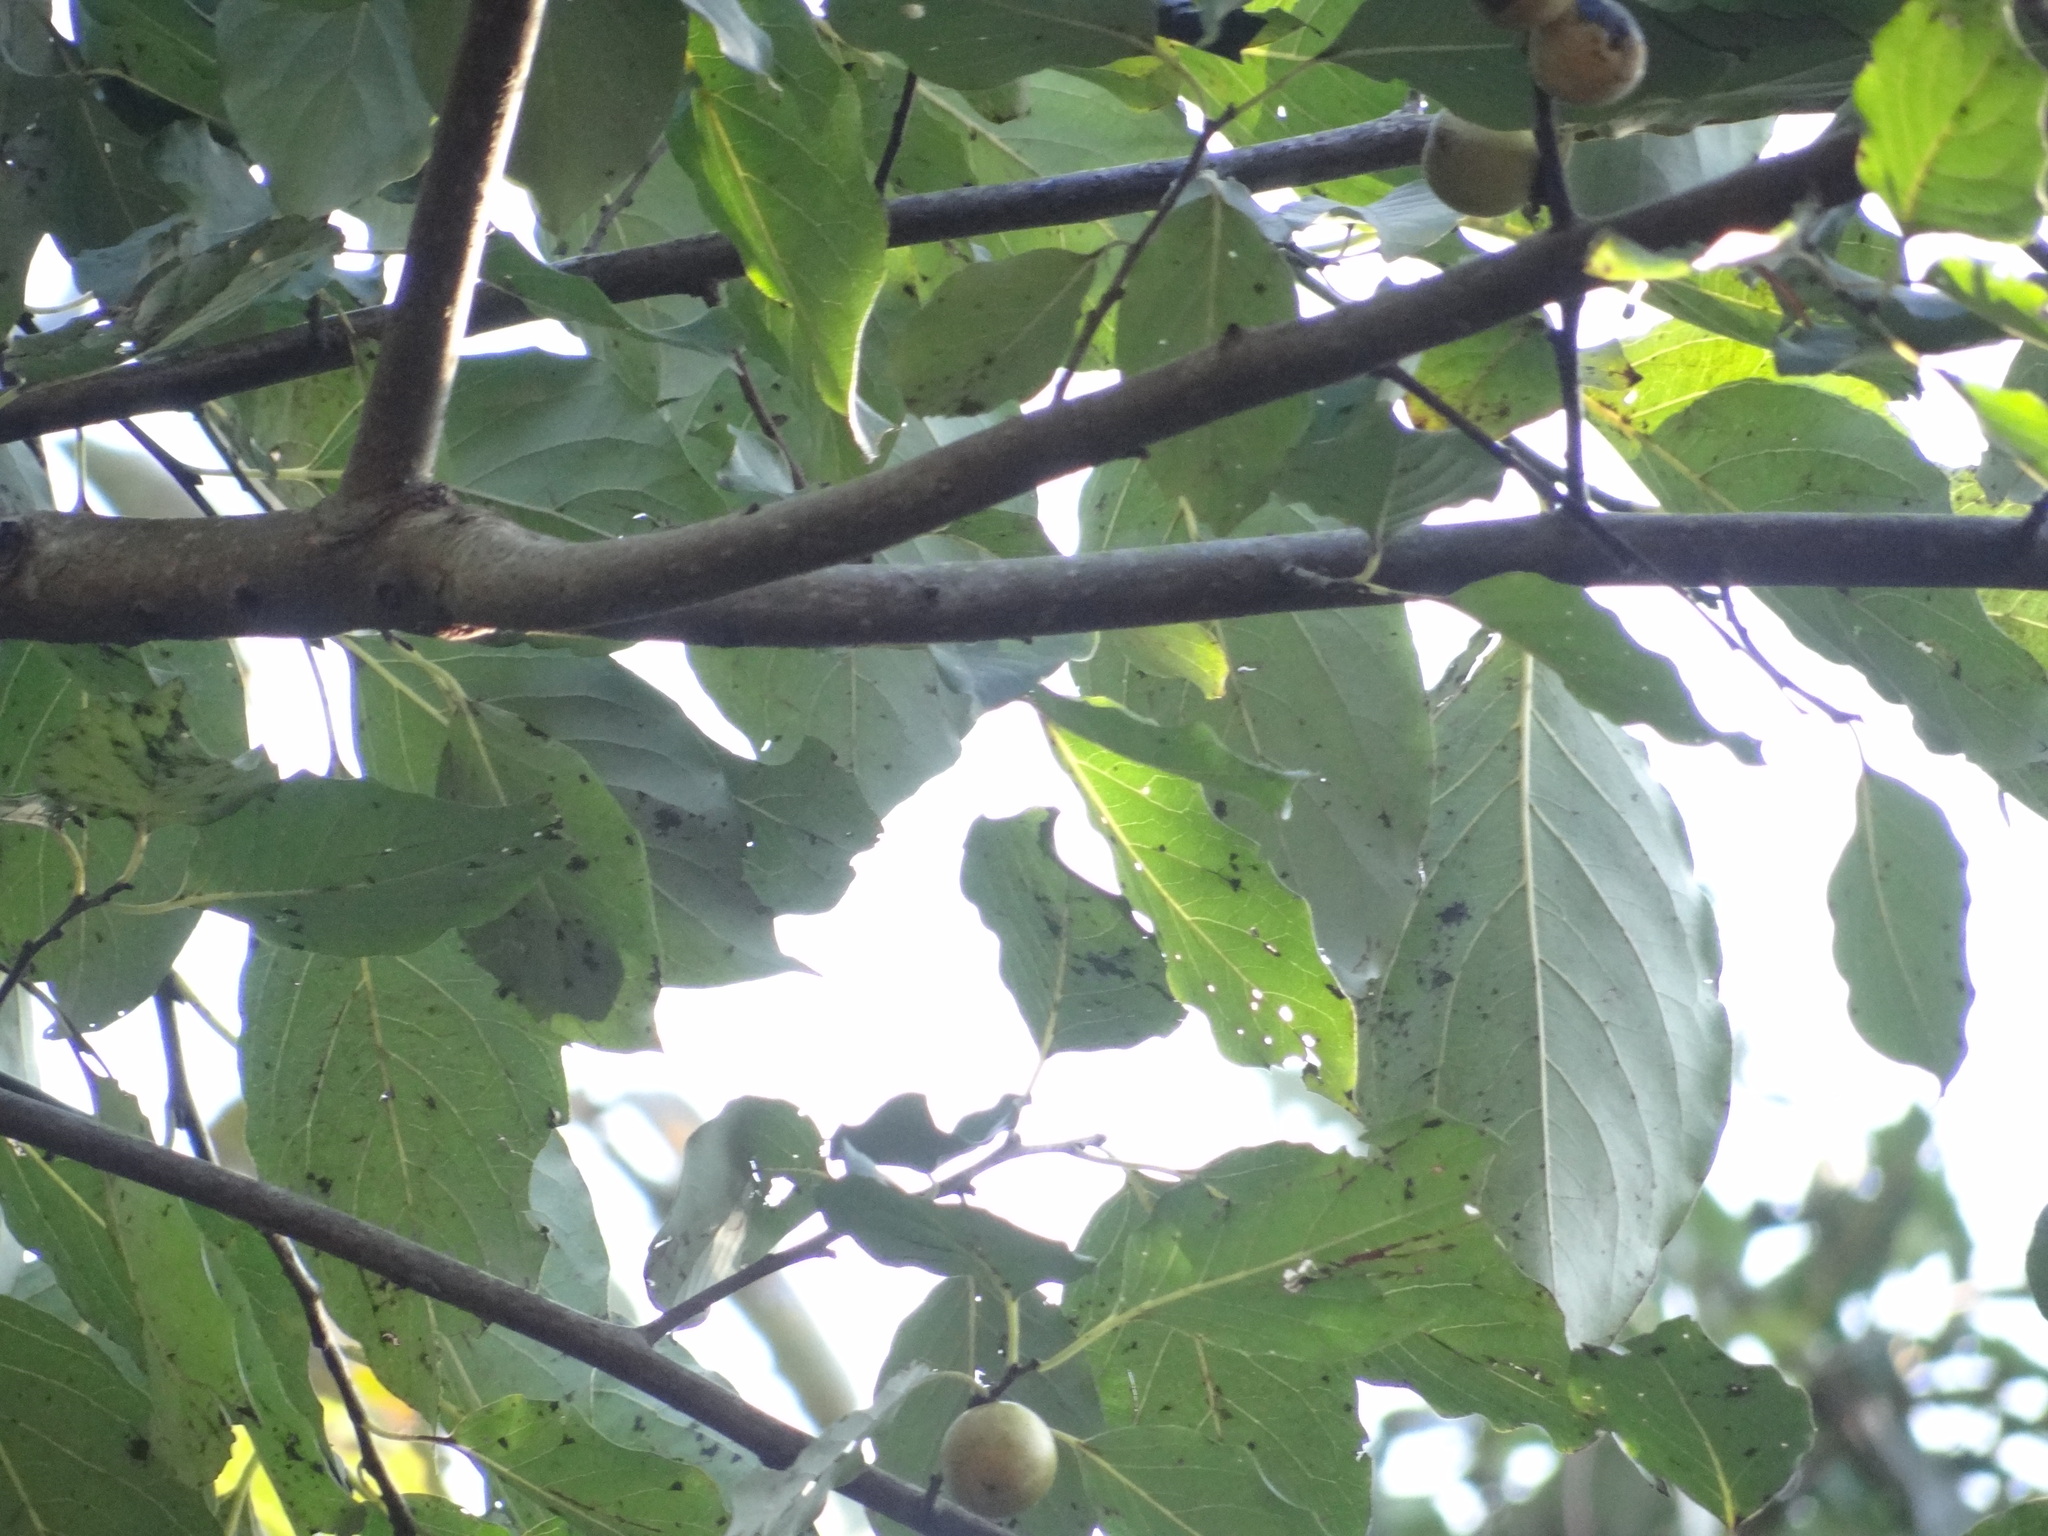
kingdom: Plantae
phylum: Tracheophyta
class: Magnoliopsida
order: Ericales
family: Ebenaceae
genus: Diospyros
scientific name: Diospyros japonica
